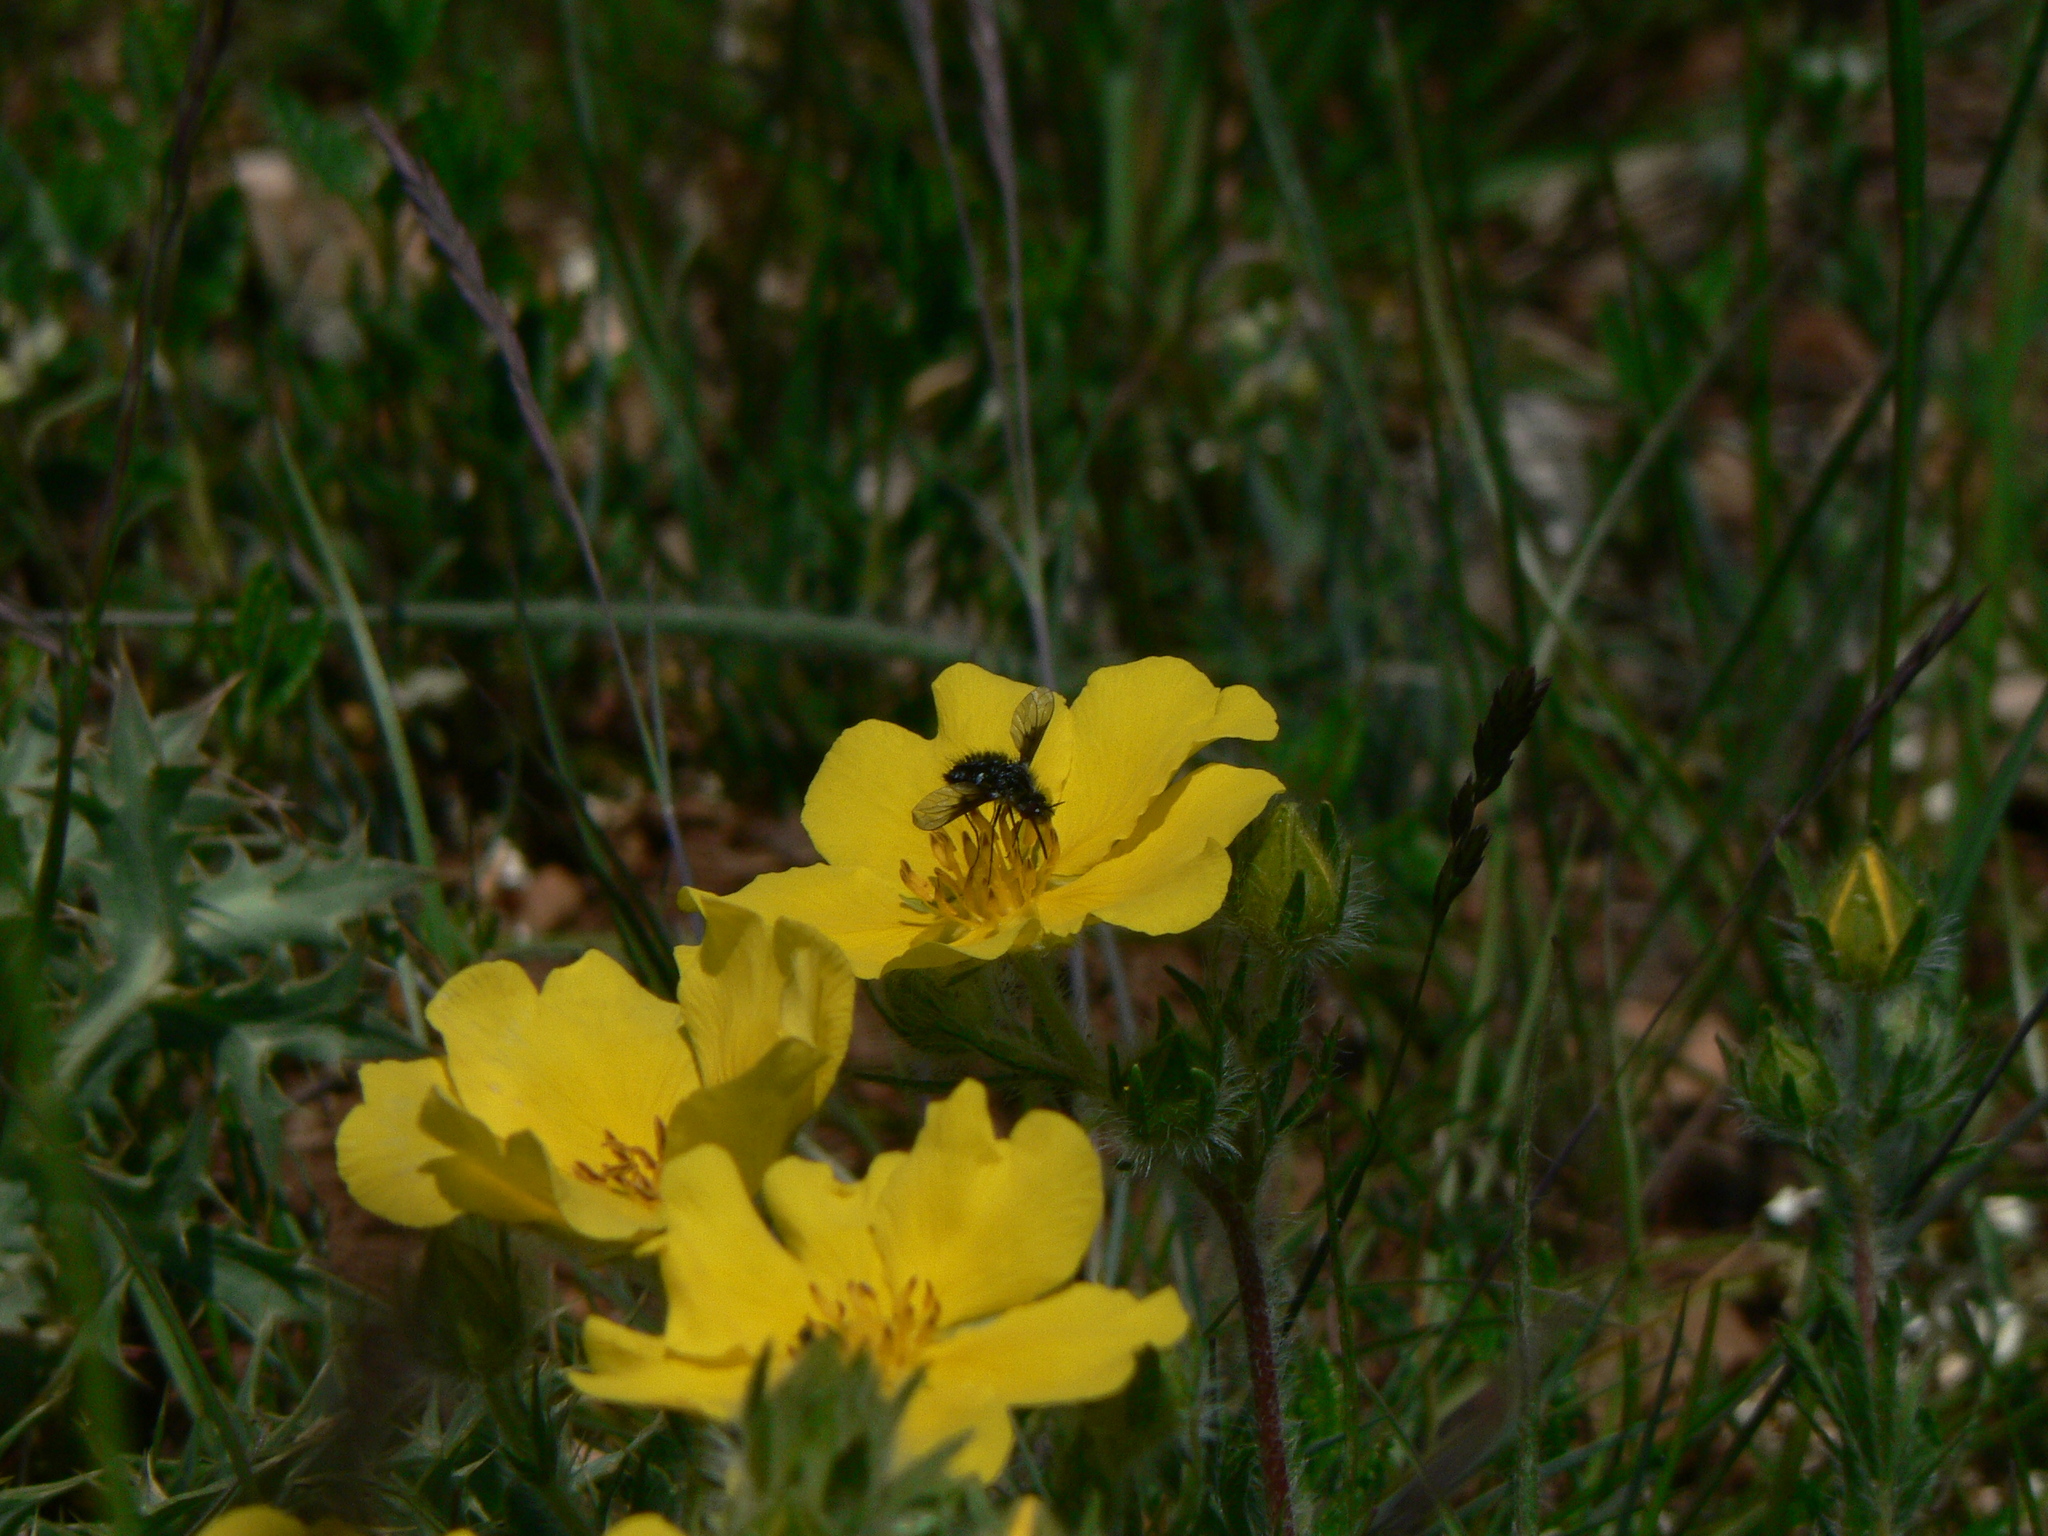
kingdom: Animalia
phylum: Arthropoda
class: Insecta
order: Diptera
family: Bombyliidae
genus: Bombylella
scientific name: Bombylella atra
